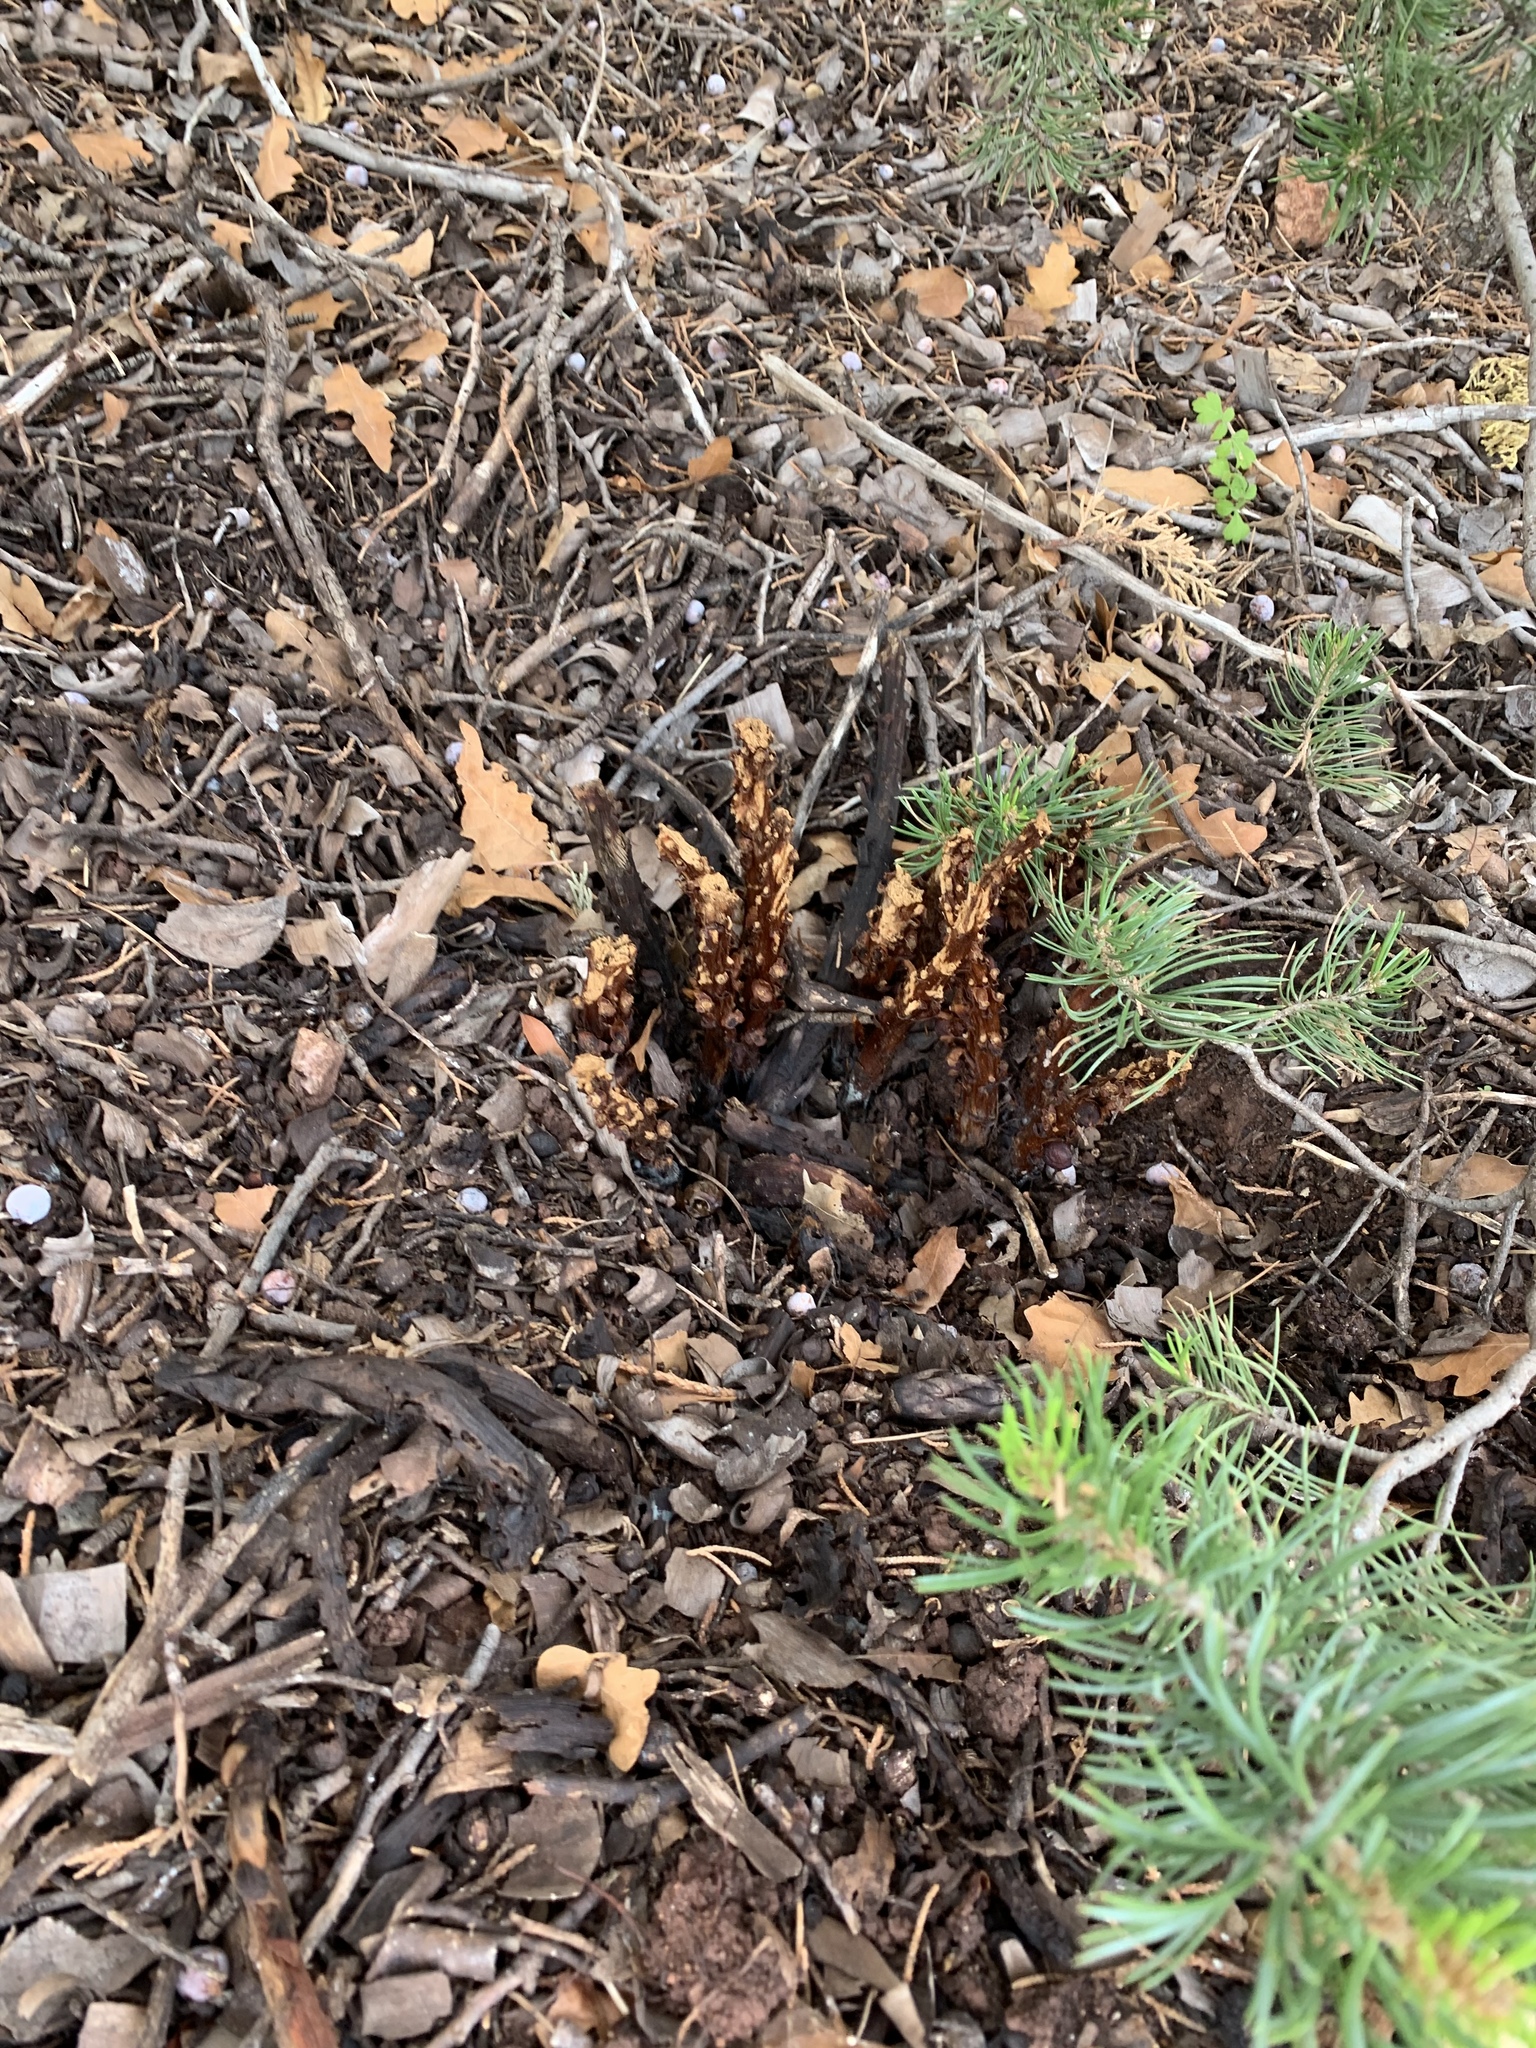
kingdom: Plantae
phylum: Tracheophyta
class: Magnoliopsida
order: Lamiales
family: Orobanchaceae
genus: Conopholis
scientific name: Conopholis alpina
